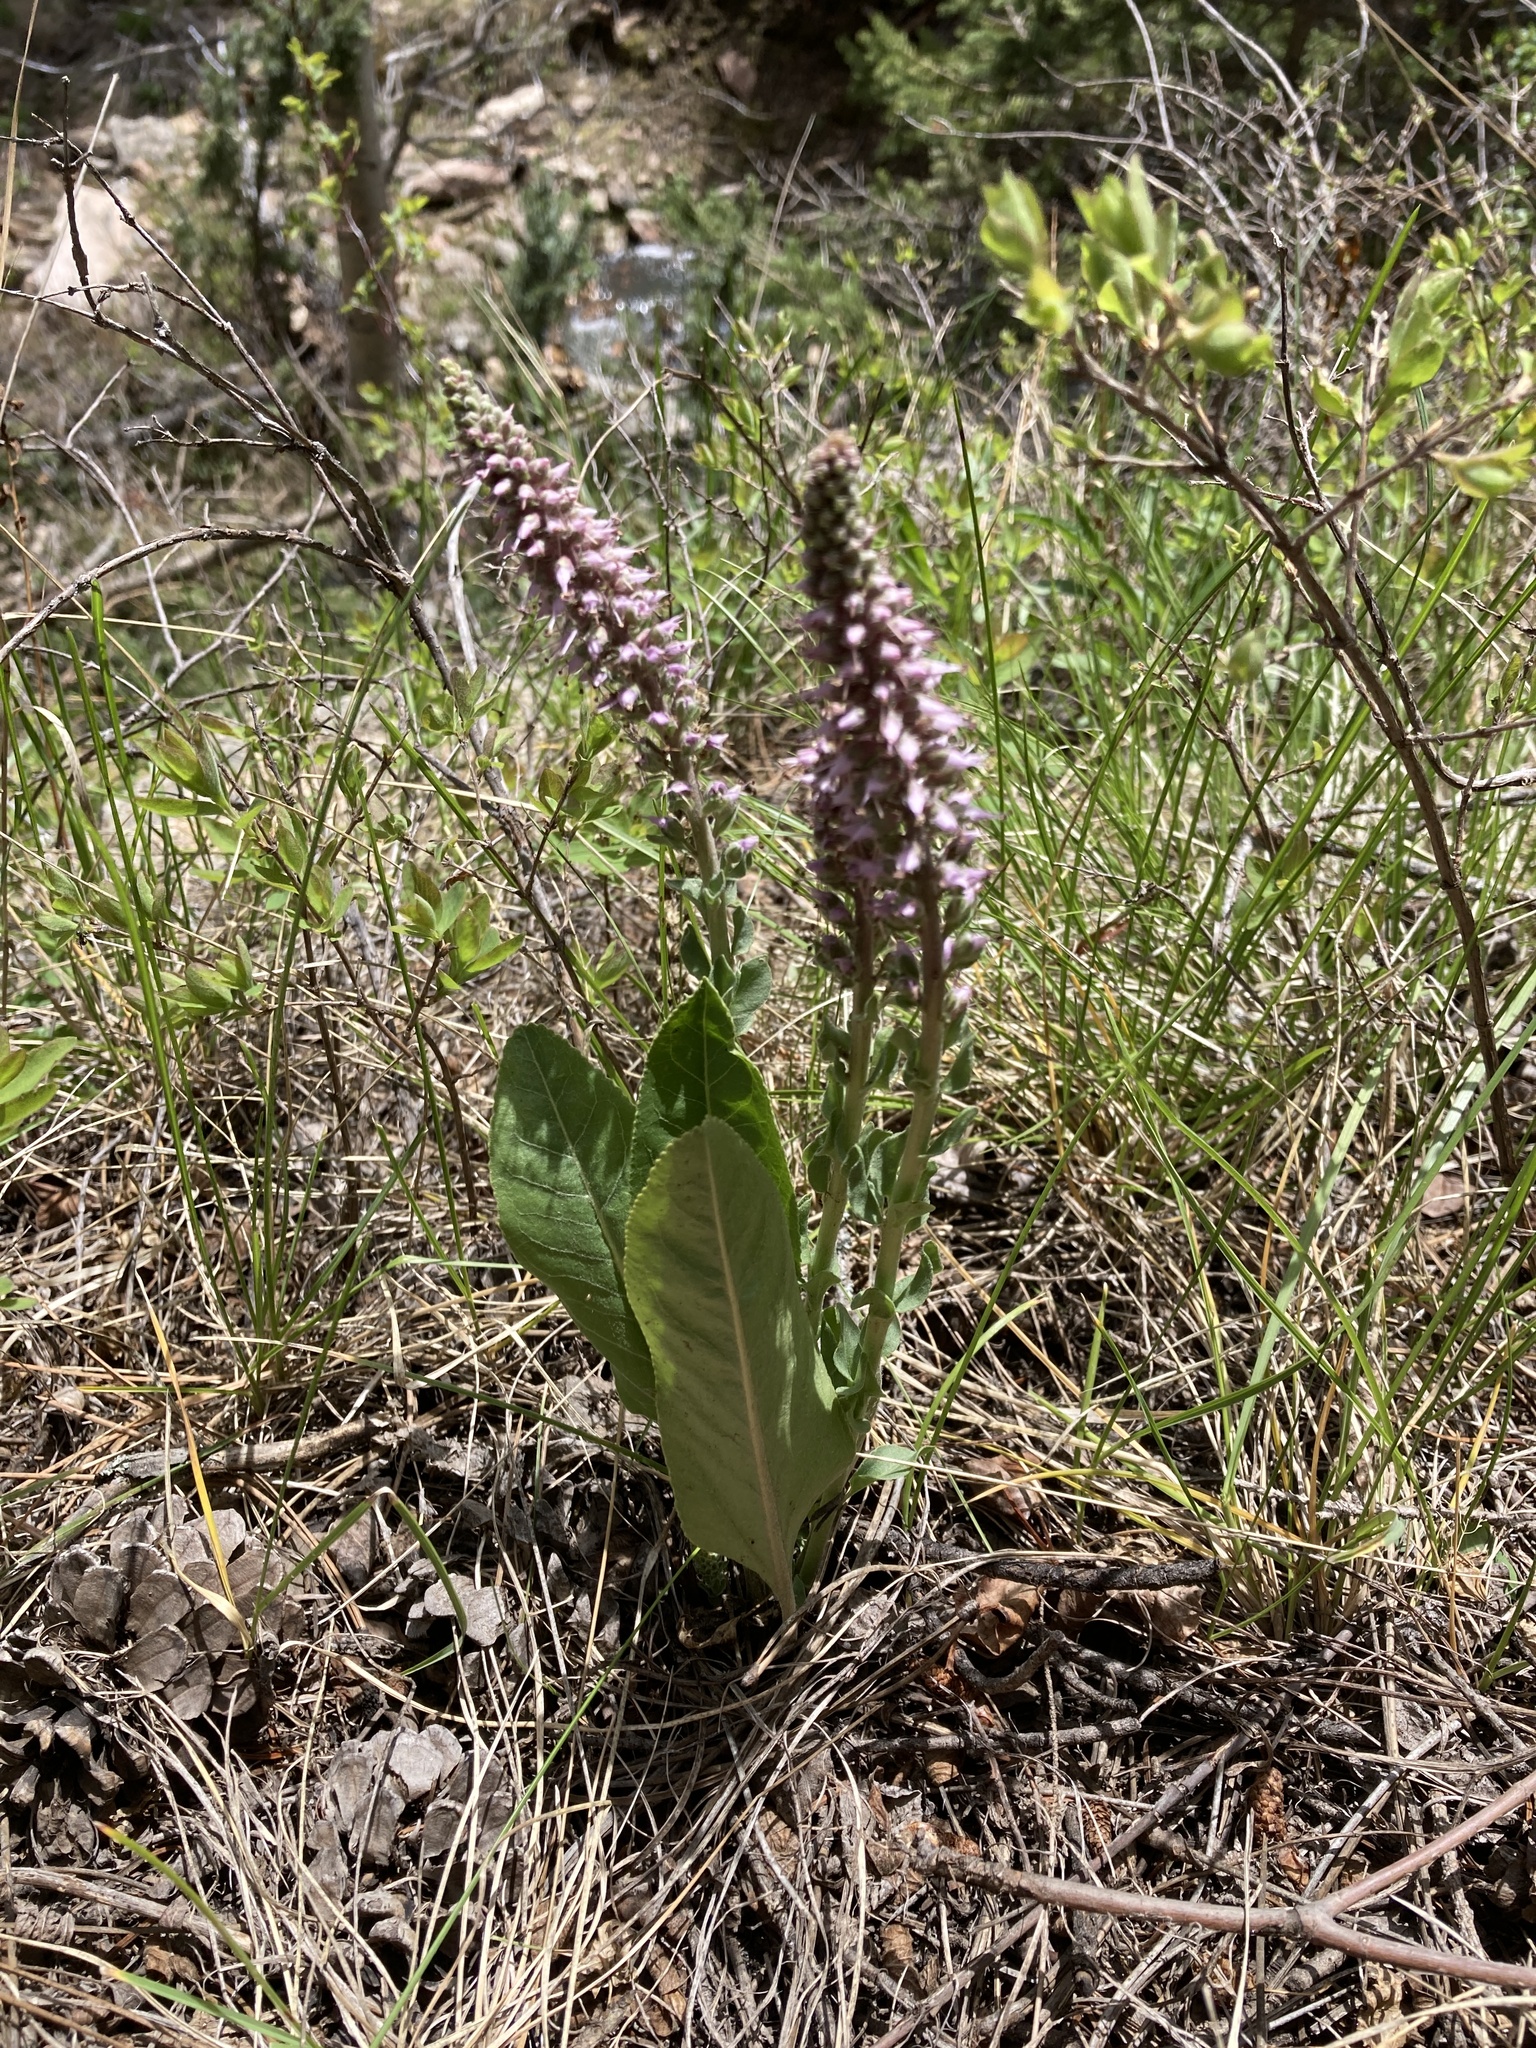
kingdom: Plantae
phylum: Tracheophyta
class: Magnoliopsida
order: Lamiales
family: Plantaginaceae
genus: Veronica
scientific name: Veronica plantaginea
